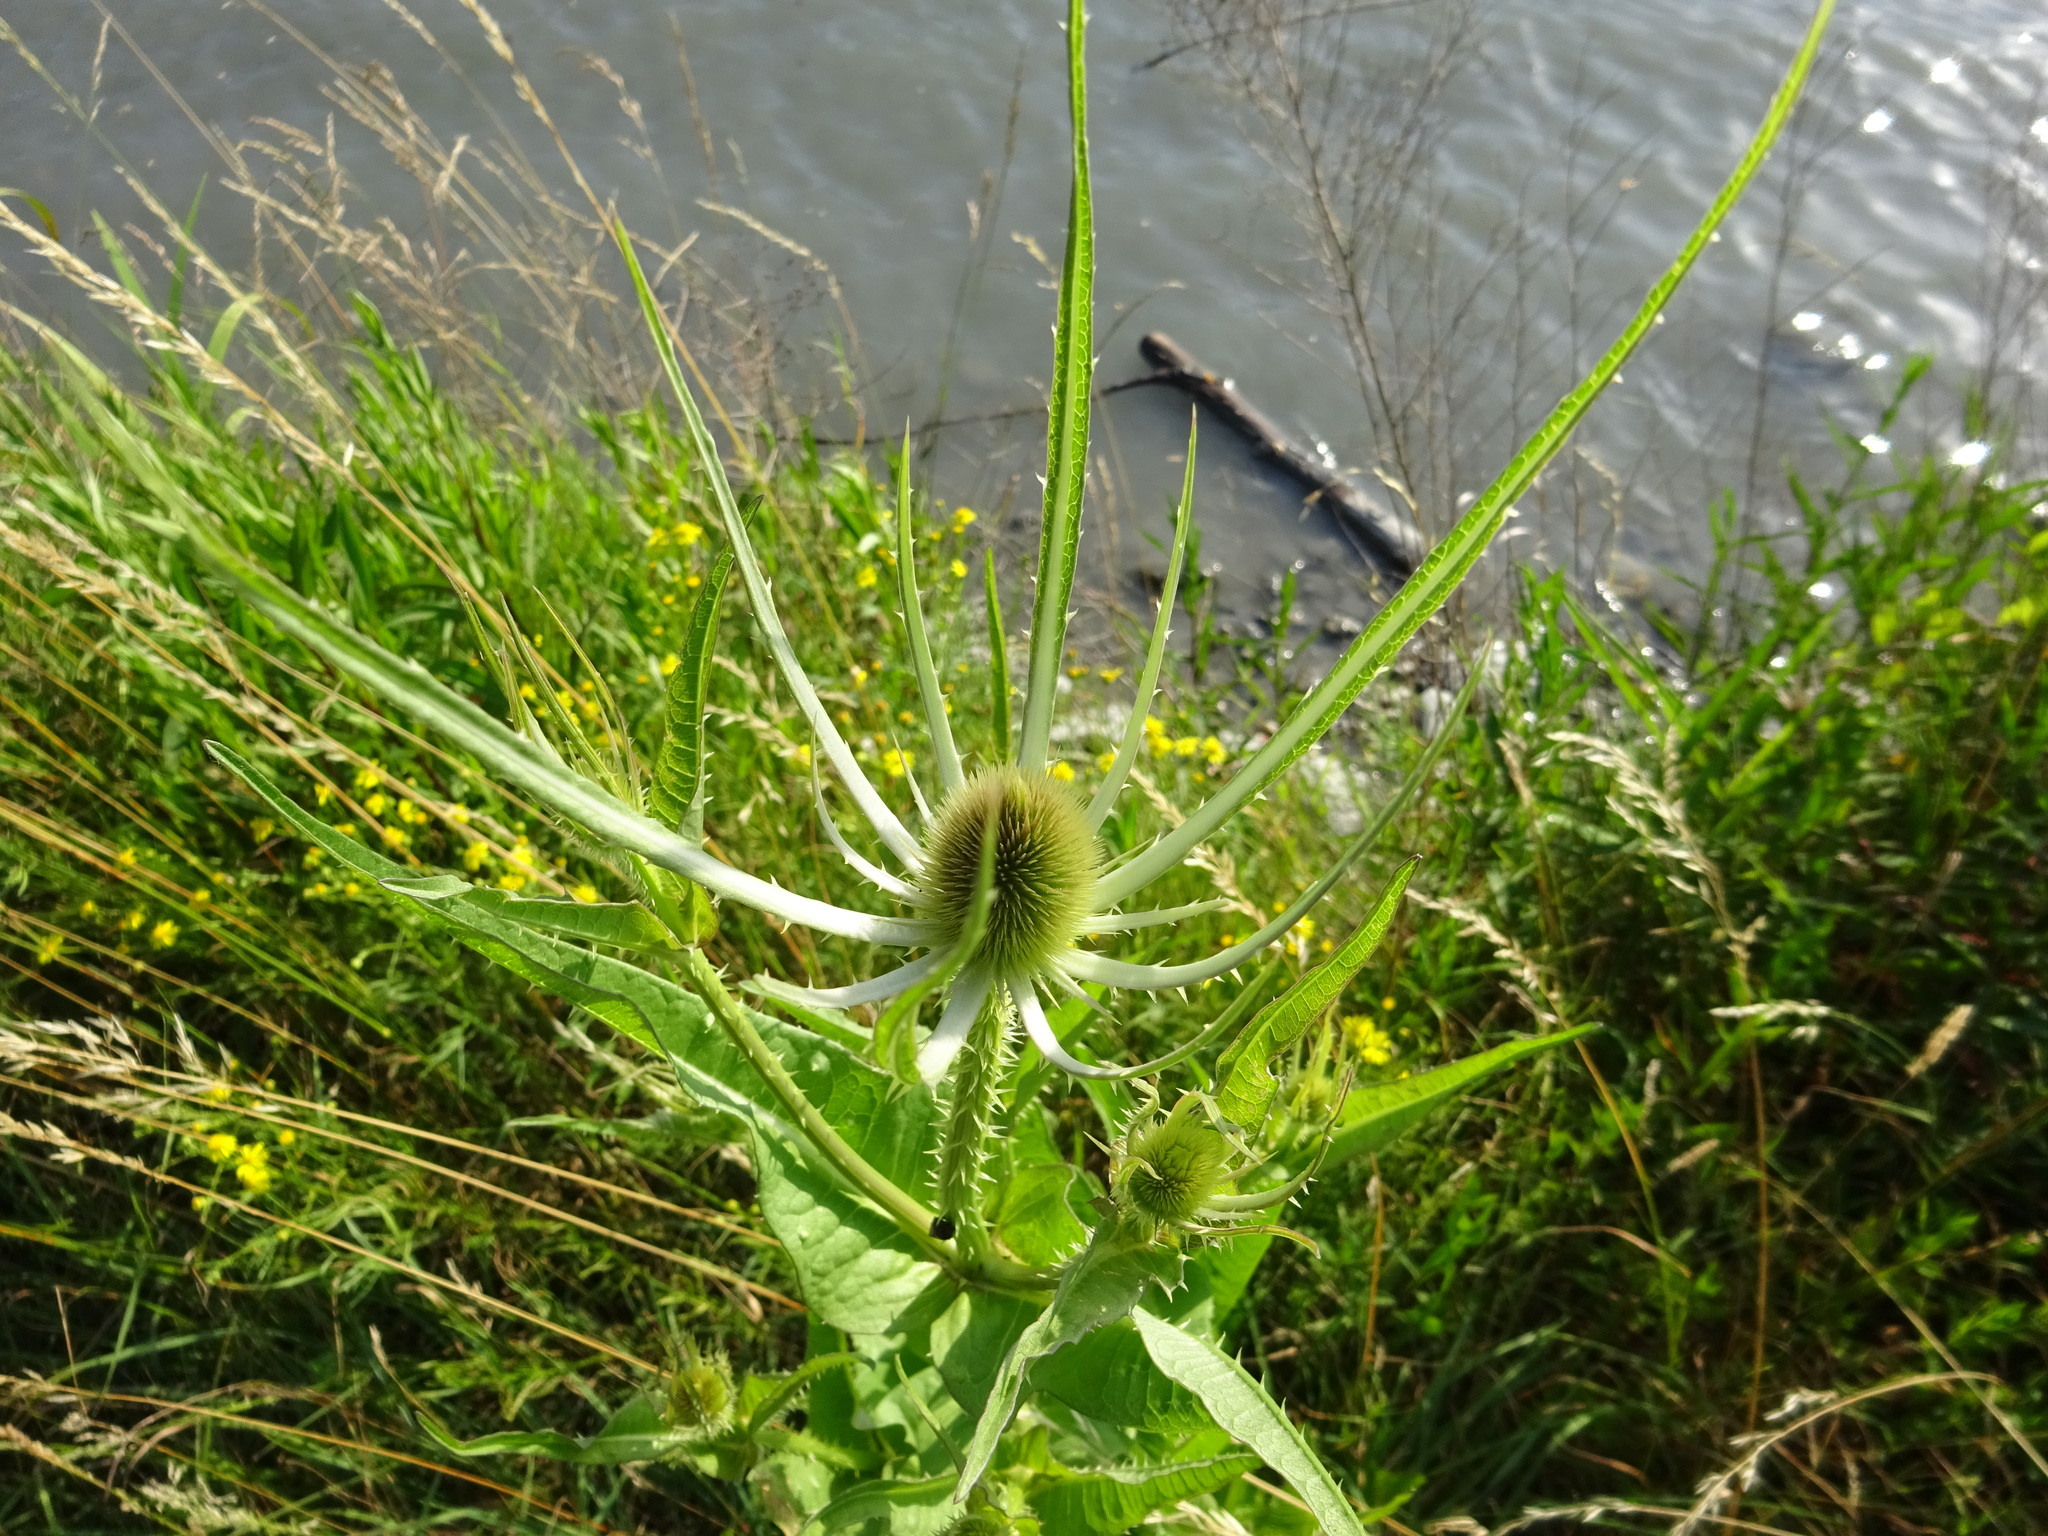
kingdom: Plantae
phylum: Tracheophyta
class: Magnoliopsida
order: Dipsacales
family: Caprifoliaceae
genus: Dipsacus
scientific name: Dipsacus fullonum
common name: Teasel
